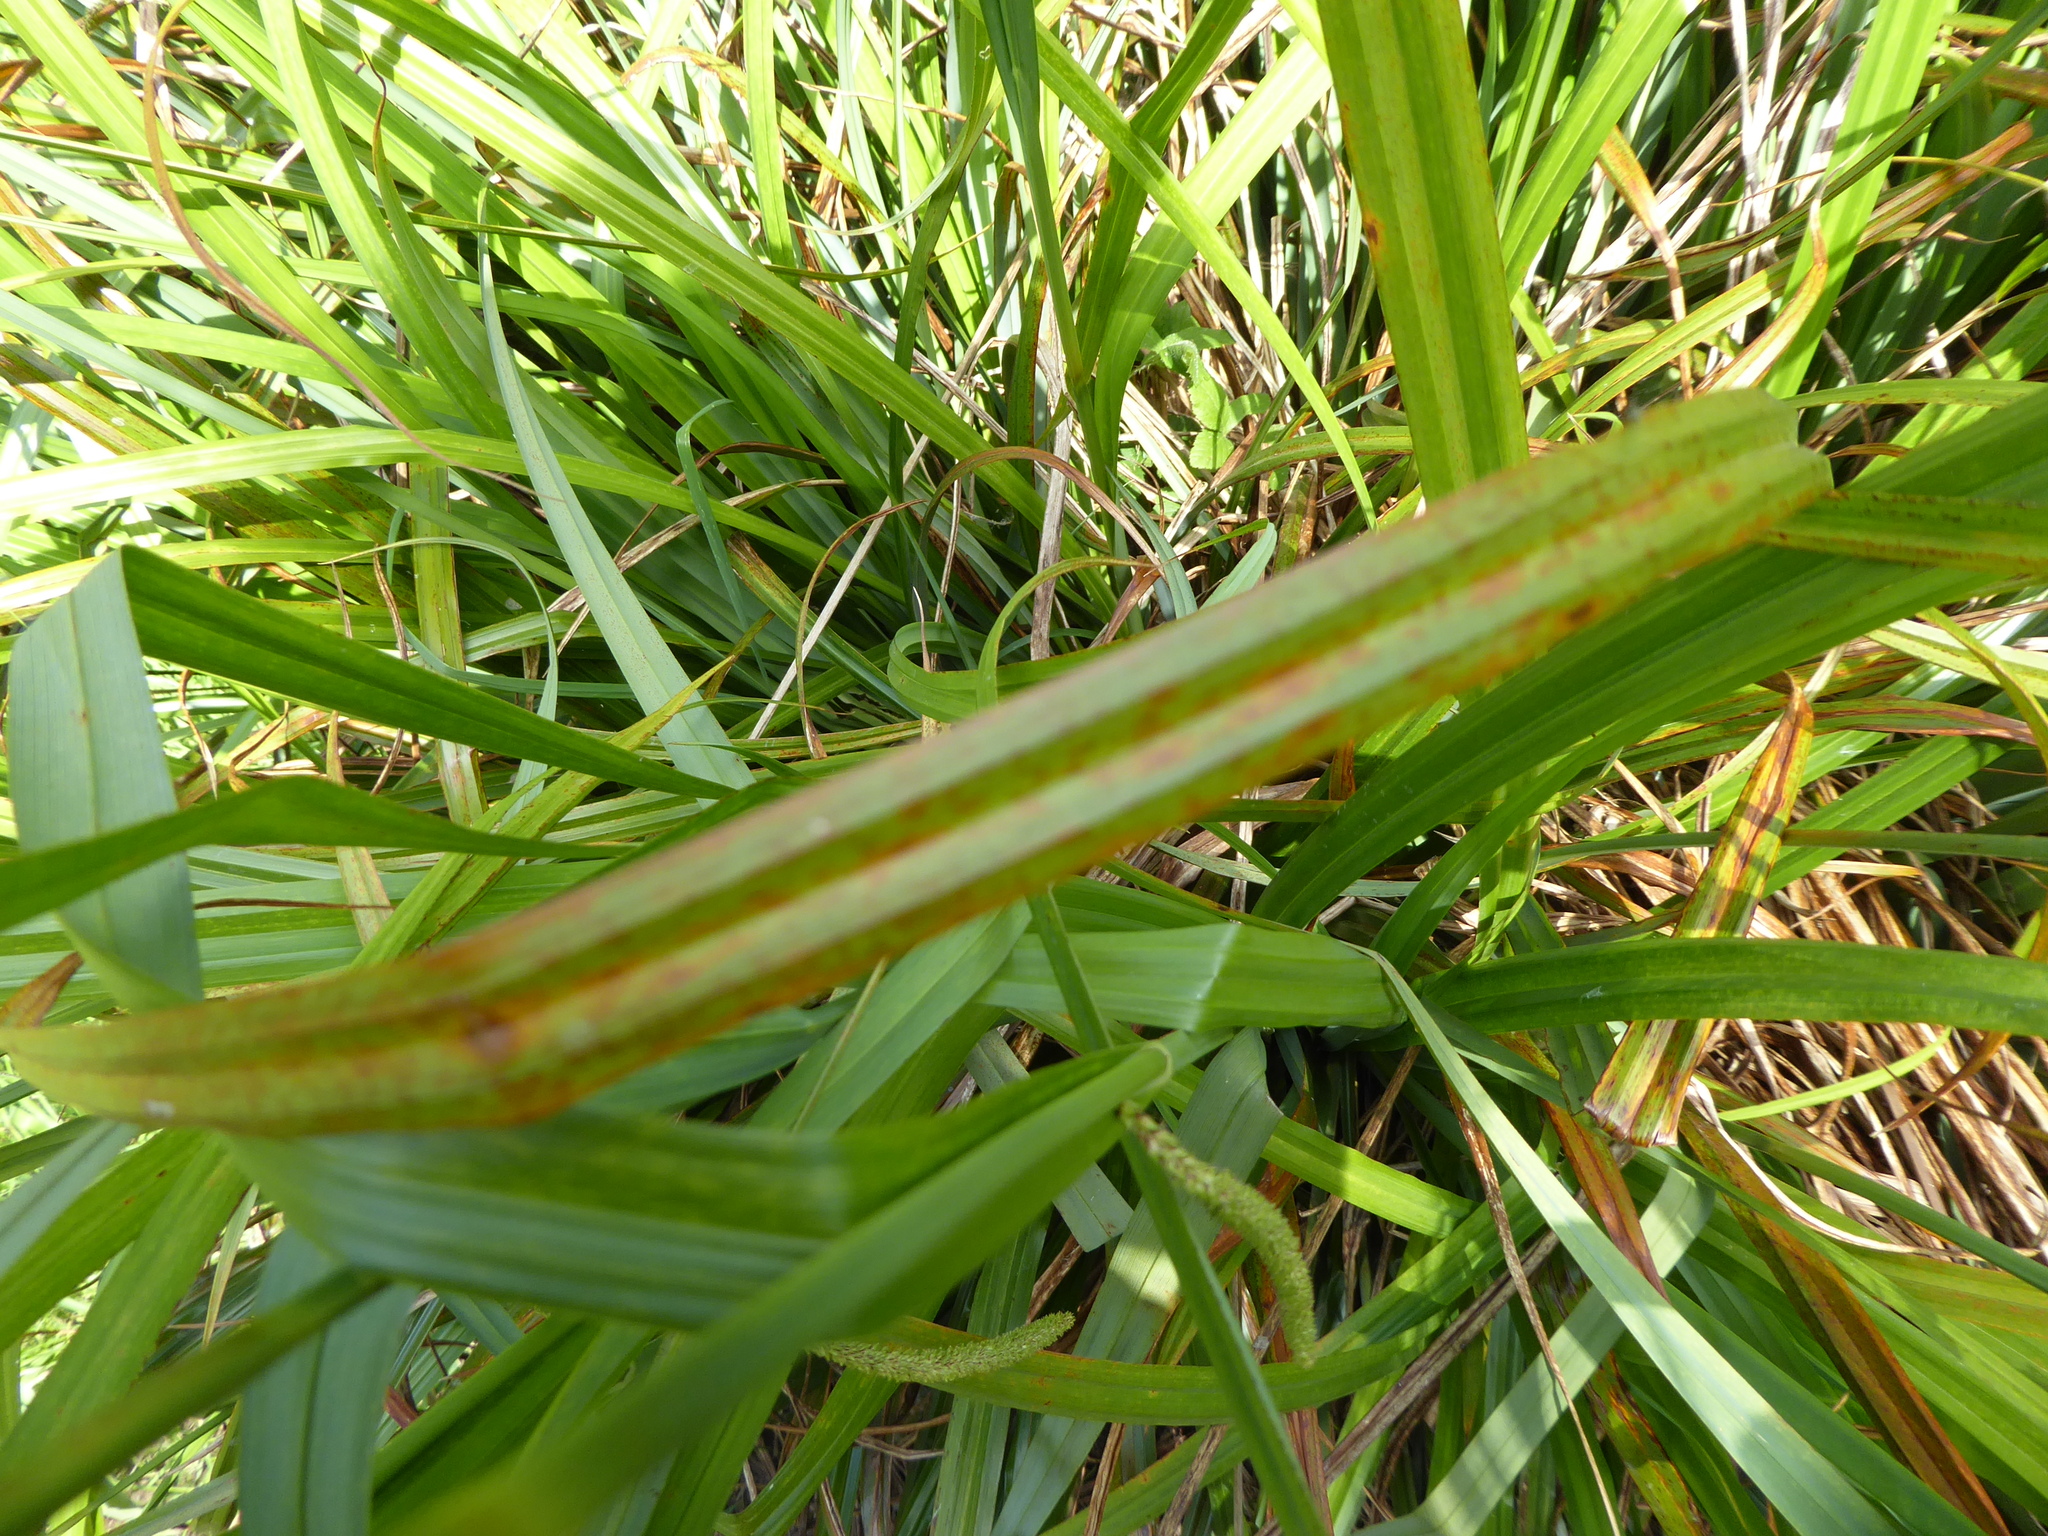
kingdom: Plantae
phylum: Tracheophyta
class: Liliopsida
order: Poales
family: Cyperaceae
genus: Carex
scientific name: Carex pendula
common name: Pendulous sedge
